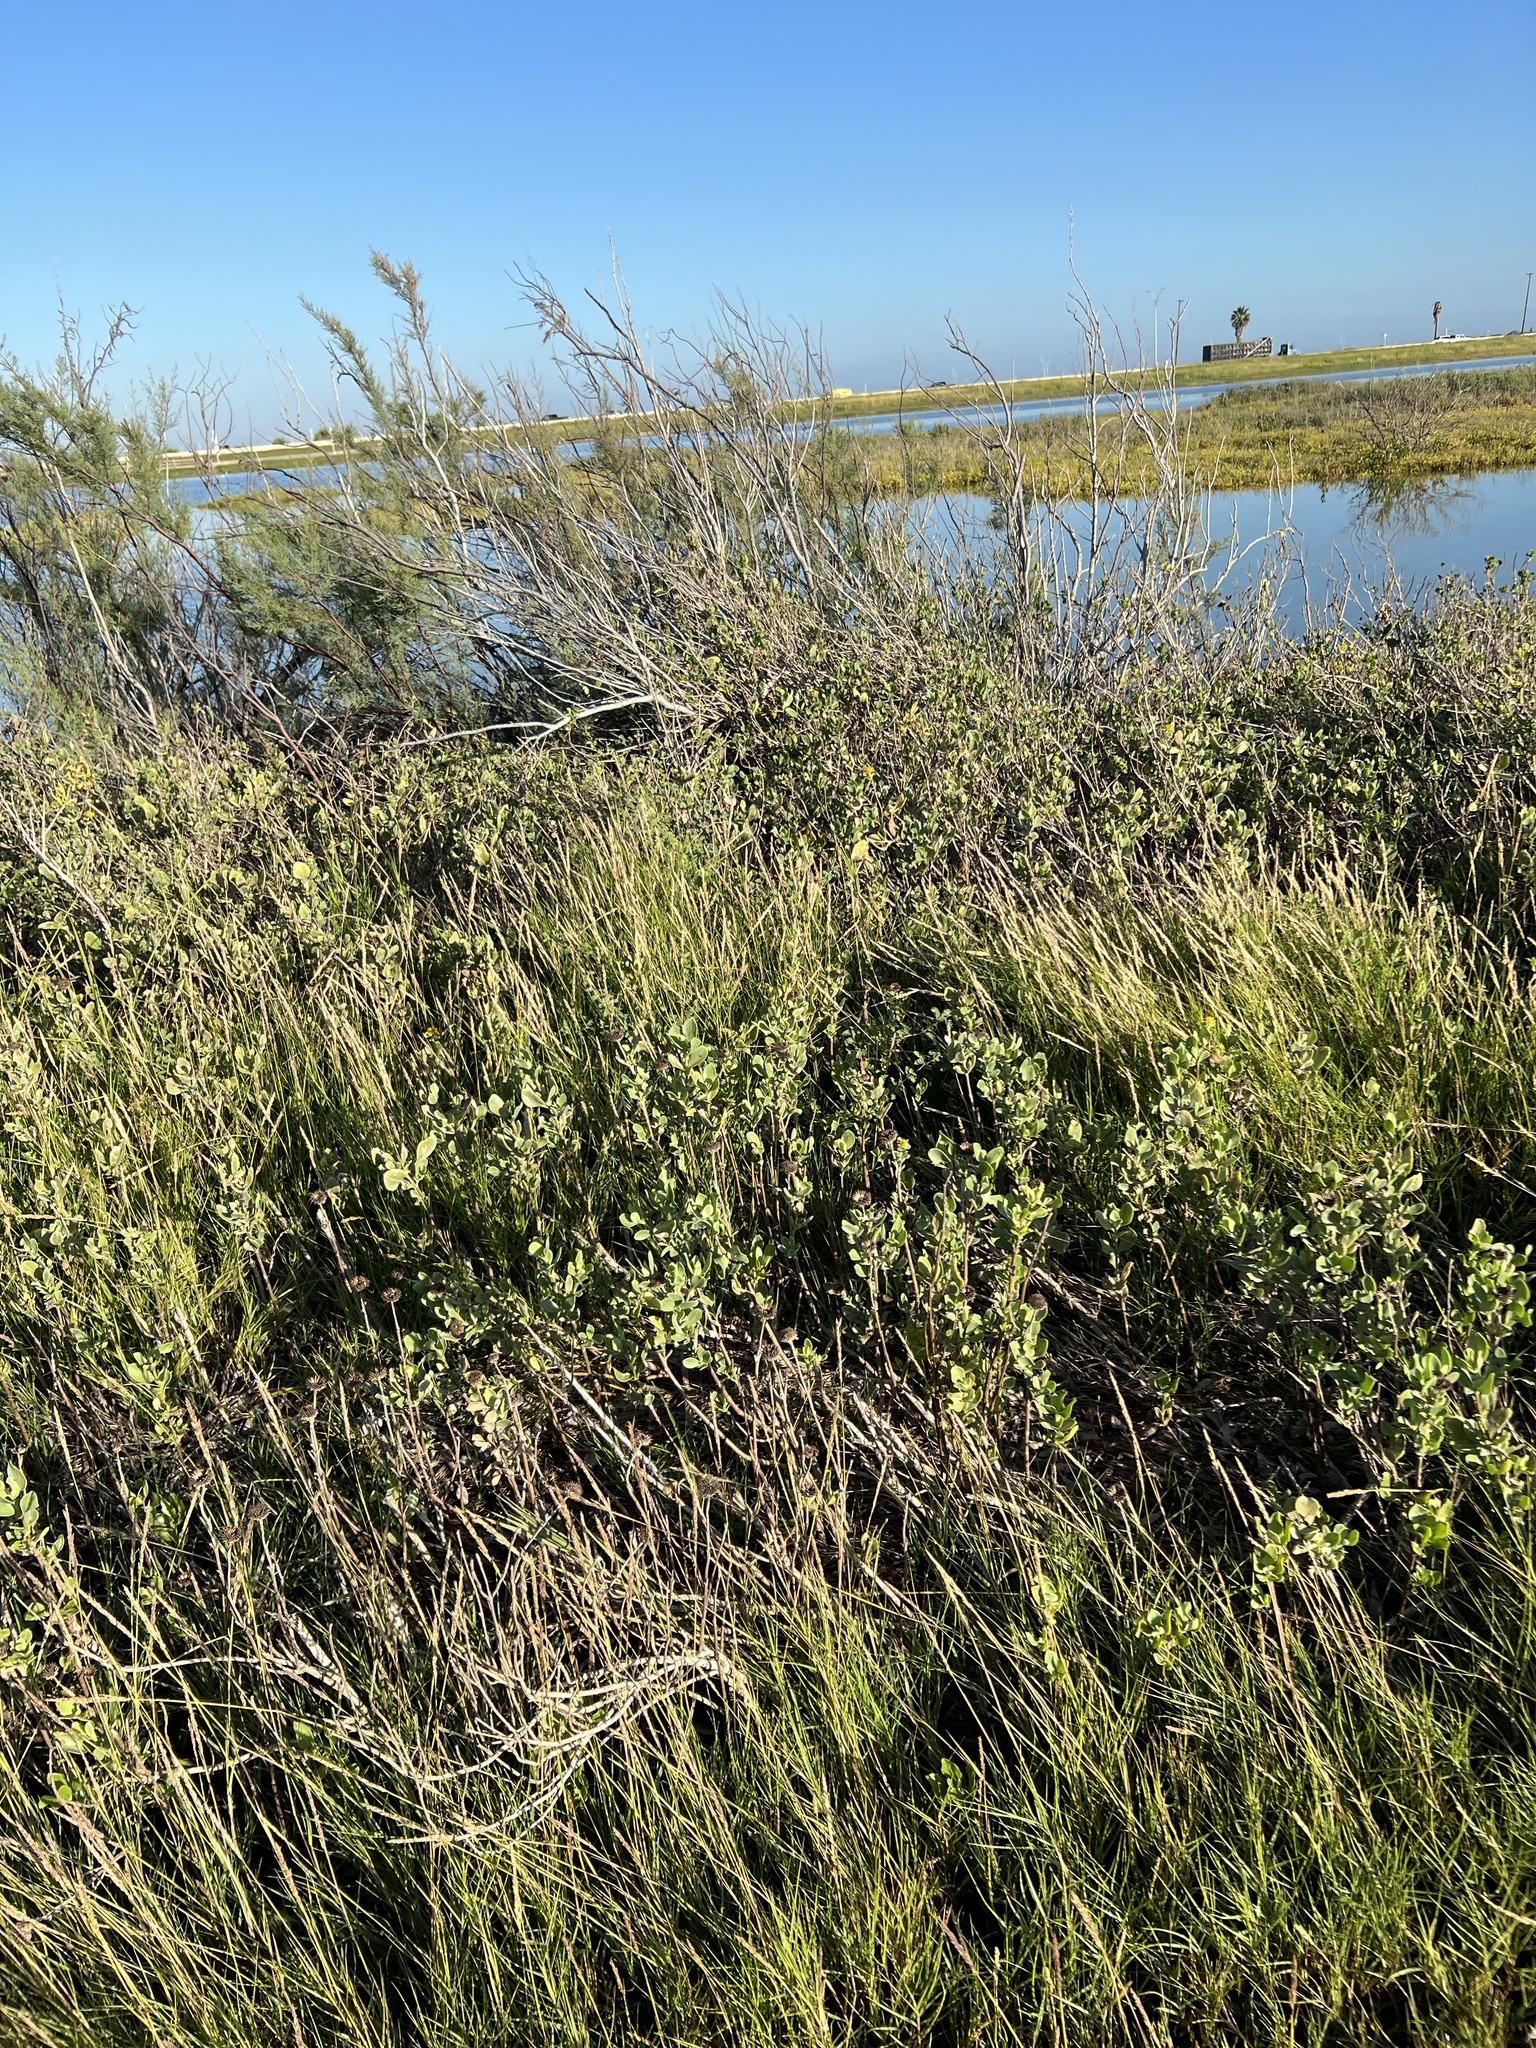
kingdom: Plantae
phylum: Tracheophyta
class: Magnoliopsida
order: Asterales
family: Asteraceae
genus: Borrichia
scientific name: Borrichia frutescens
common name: Sea oxeye
